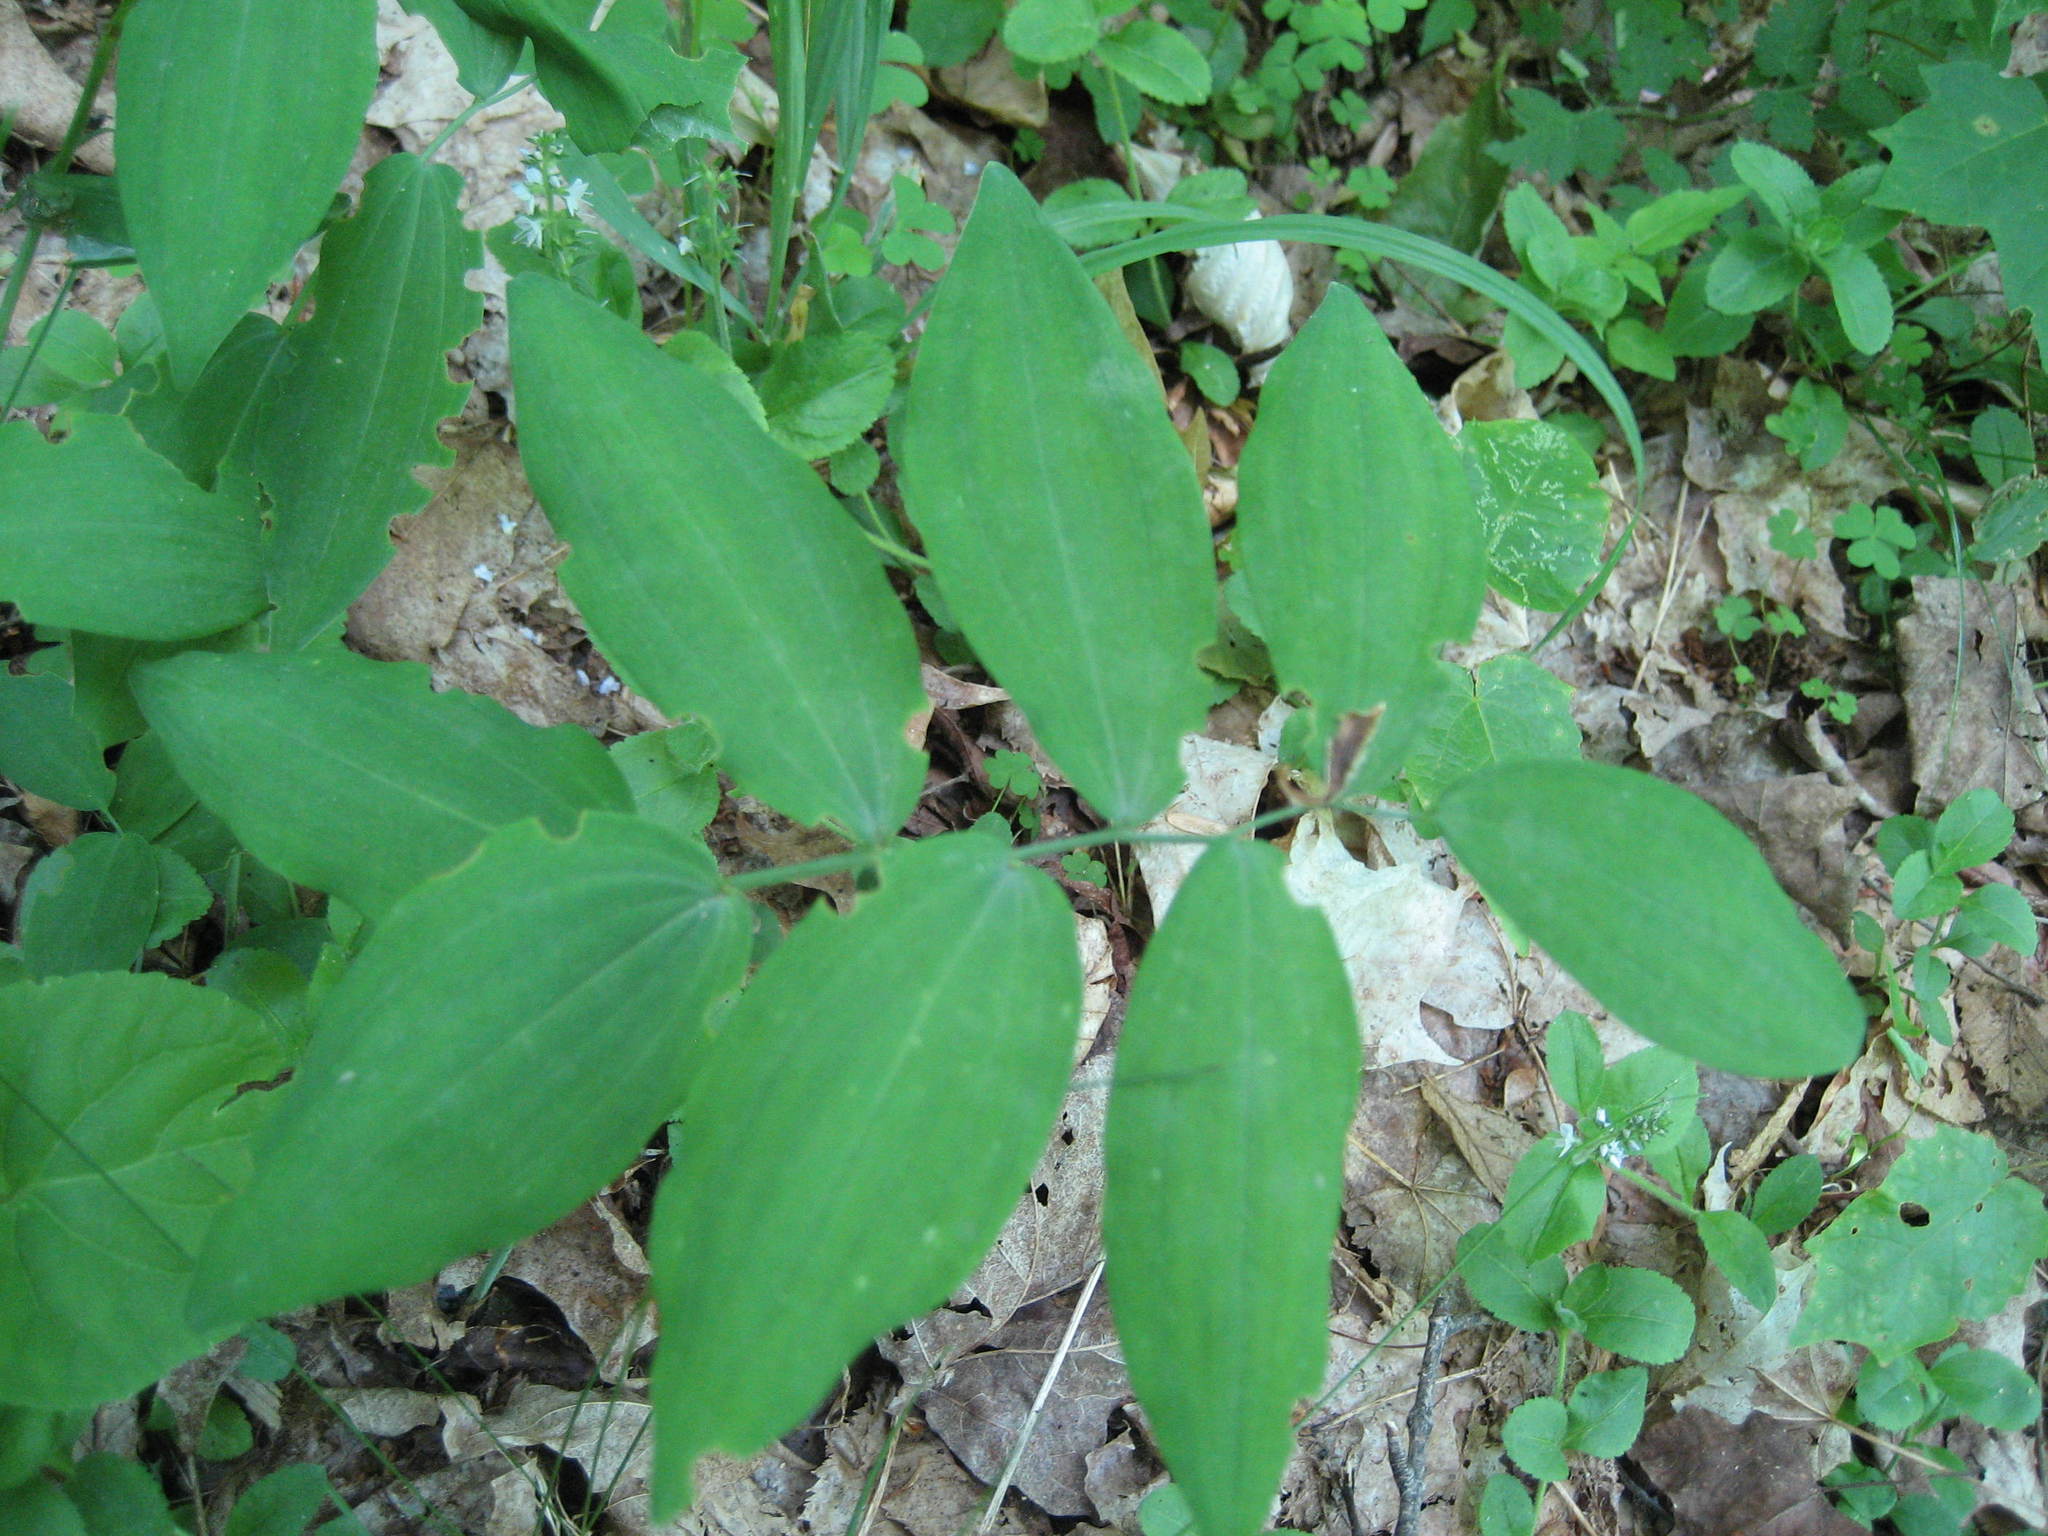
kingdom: Plantae
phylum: Tracheophyta
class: Liliopsida
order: Asparagales
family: Asparagaceae
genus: Polygonatum
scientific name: Polygonatum pubescens
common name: Downy solomon's seal
